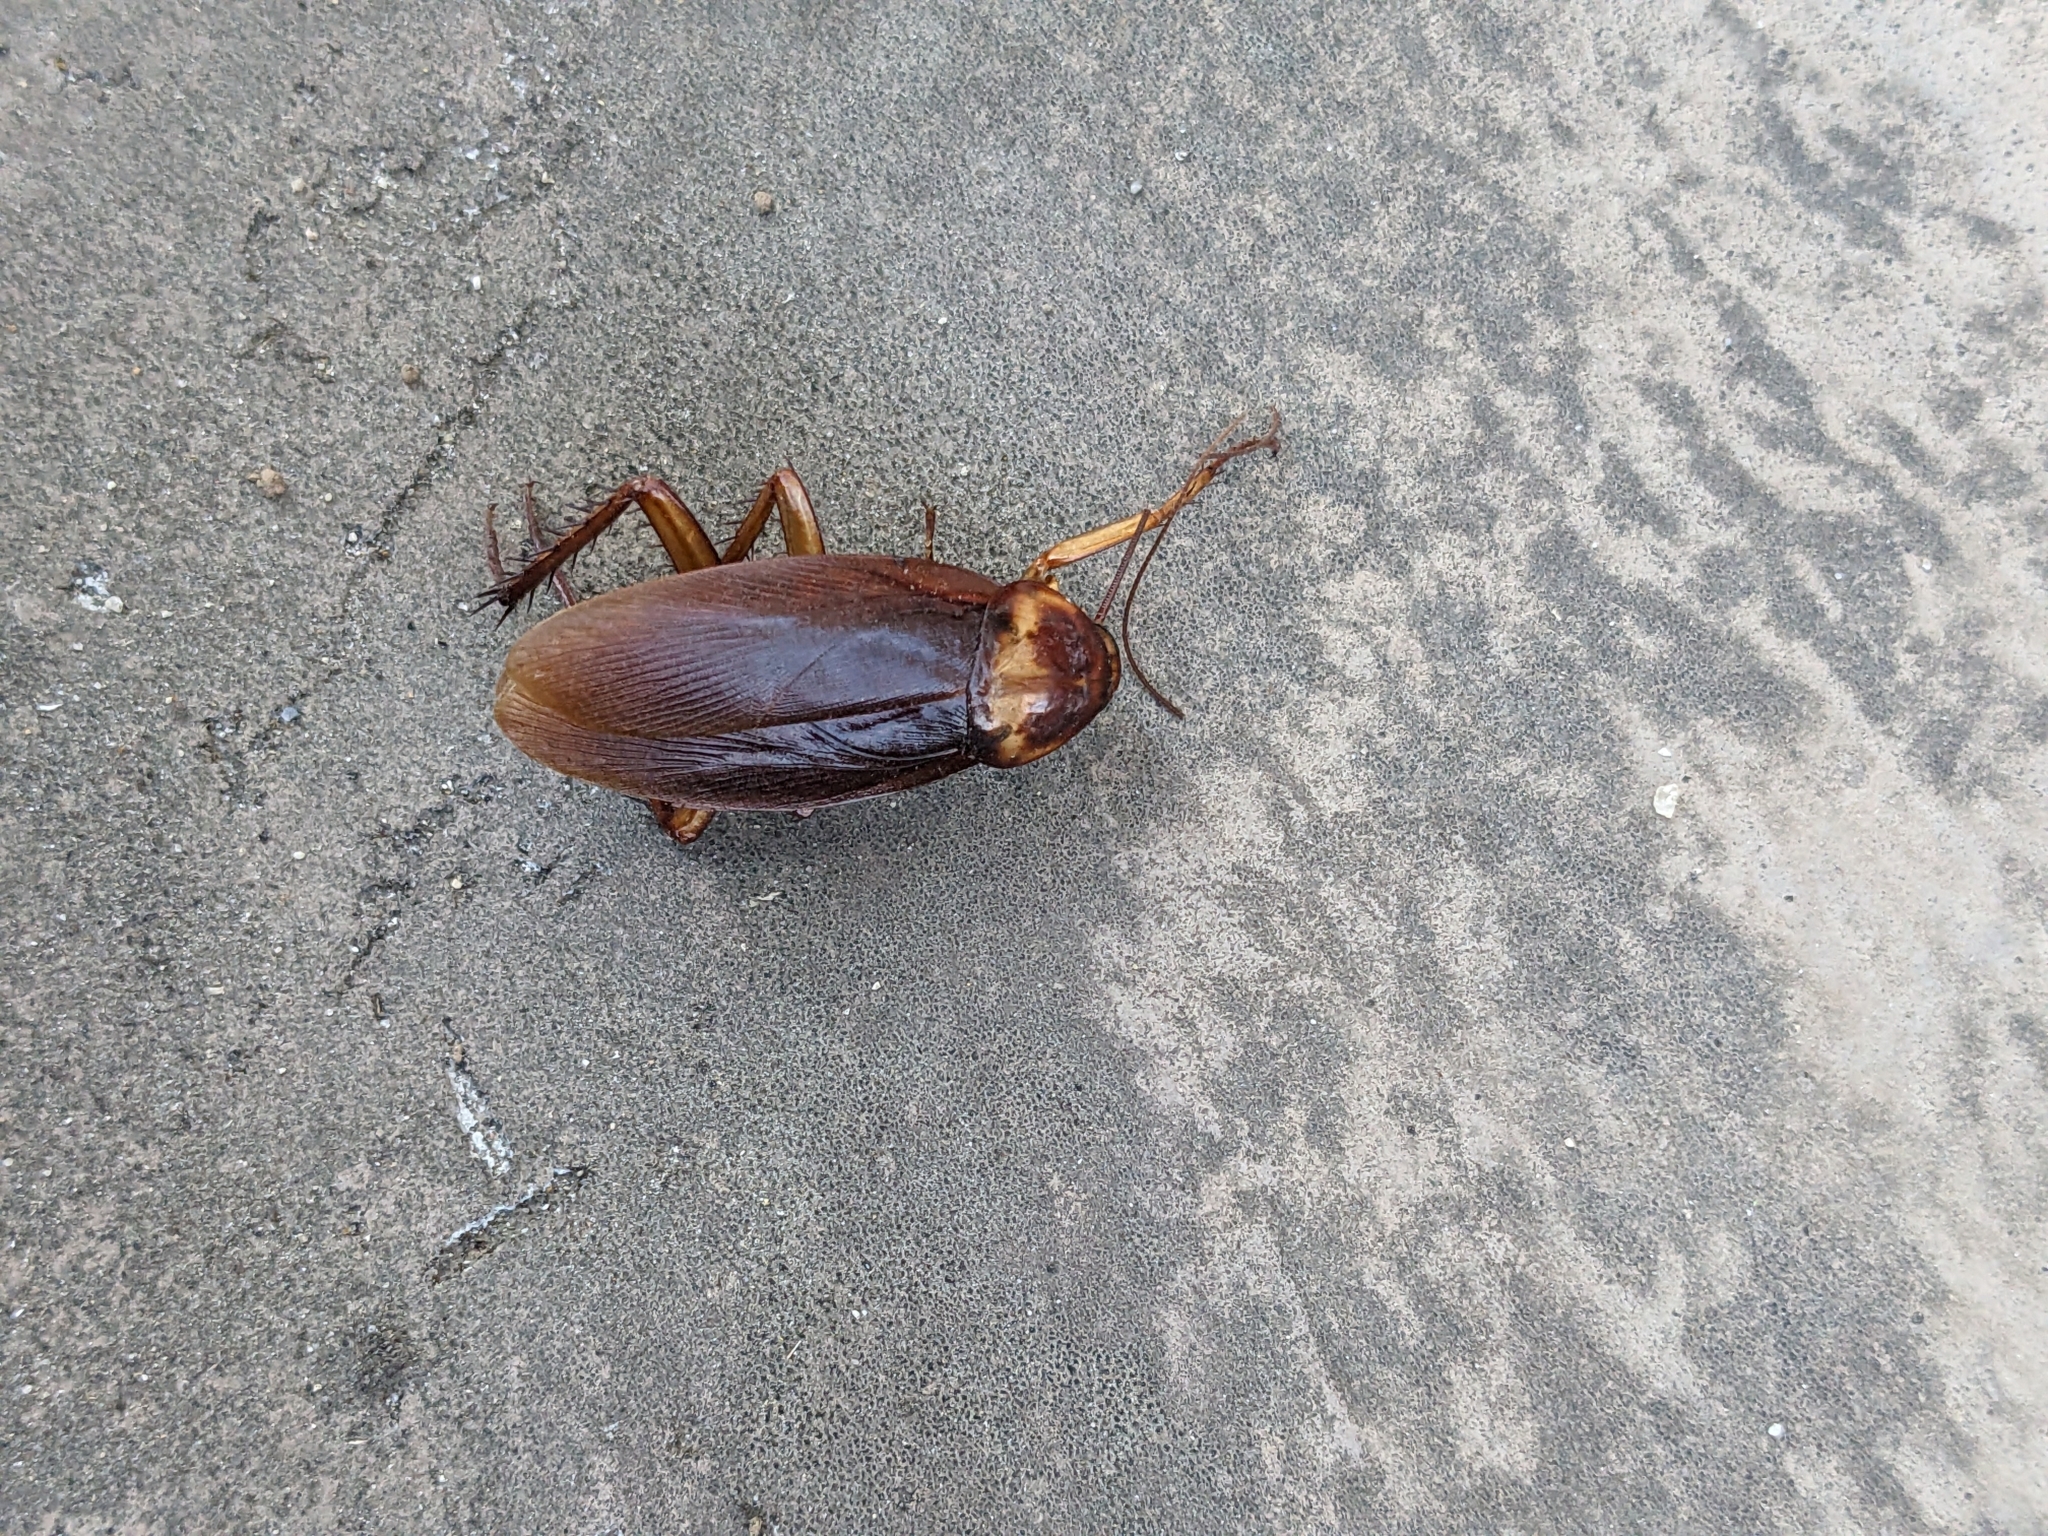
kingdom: Animalia
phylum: Arthropoda
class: Insecta
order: Blattodea
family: Blattidae
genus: Periplaneta
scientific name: Periplaneta americana
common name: American cockroach
